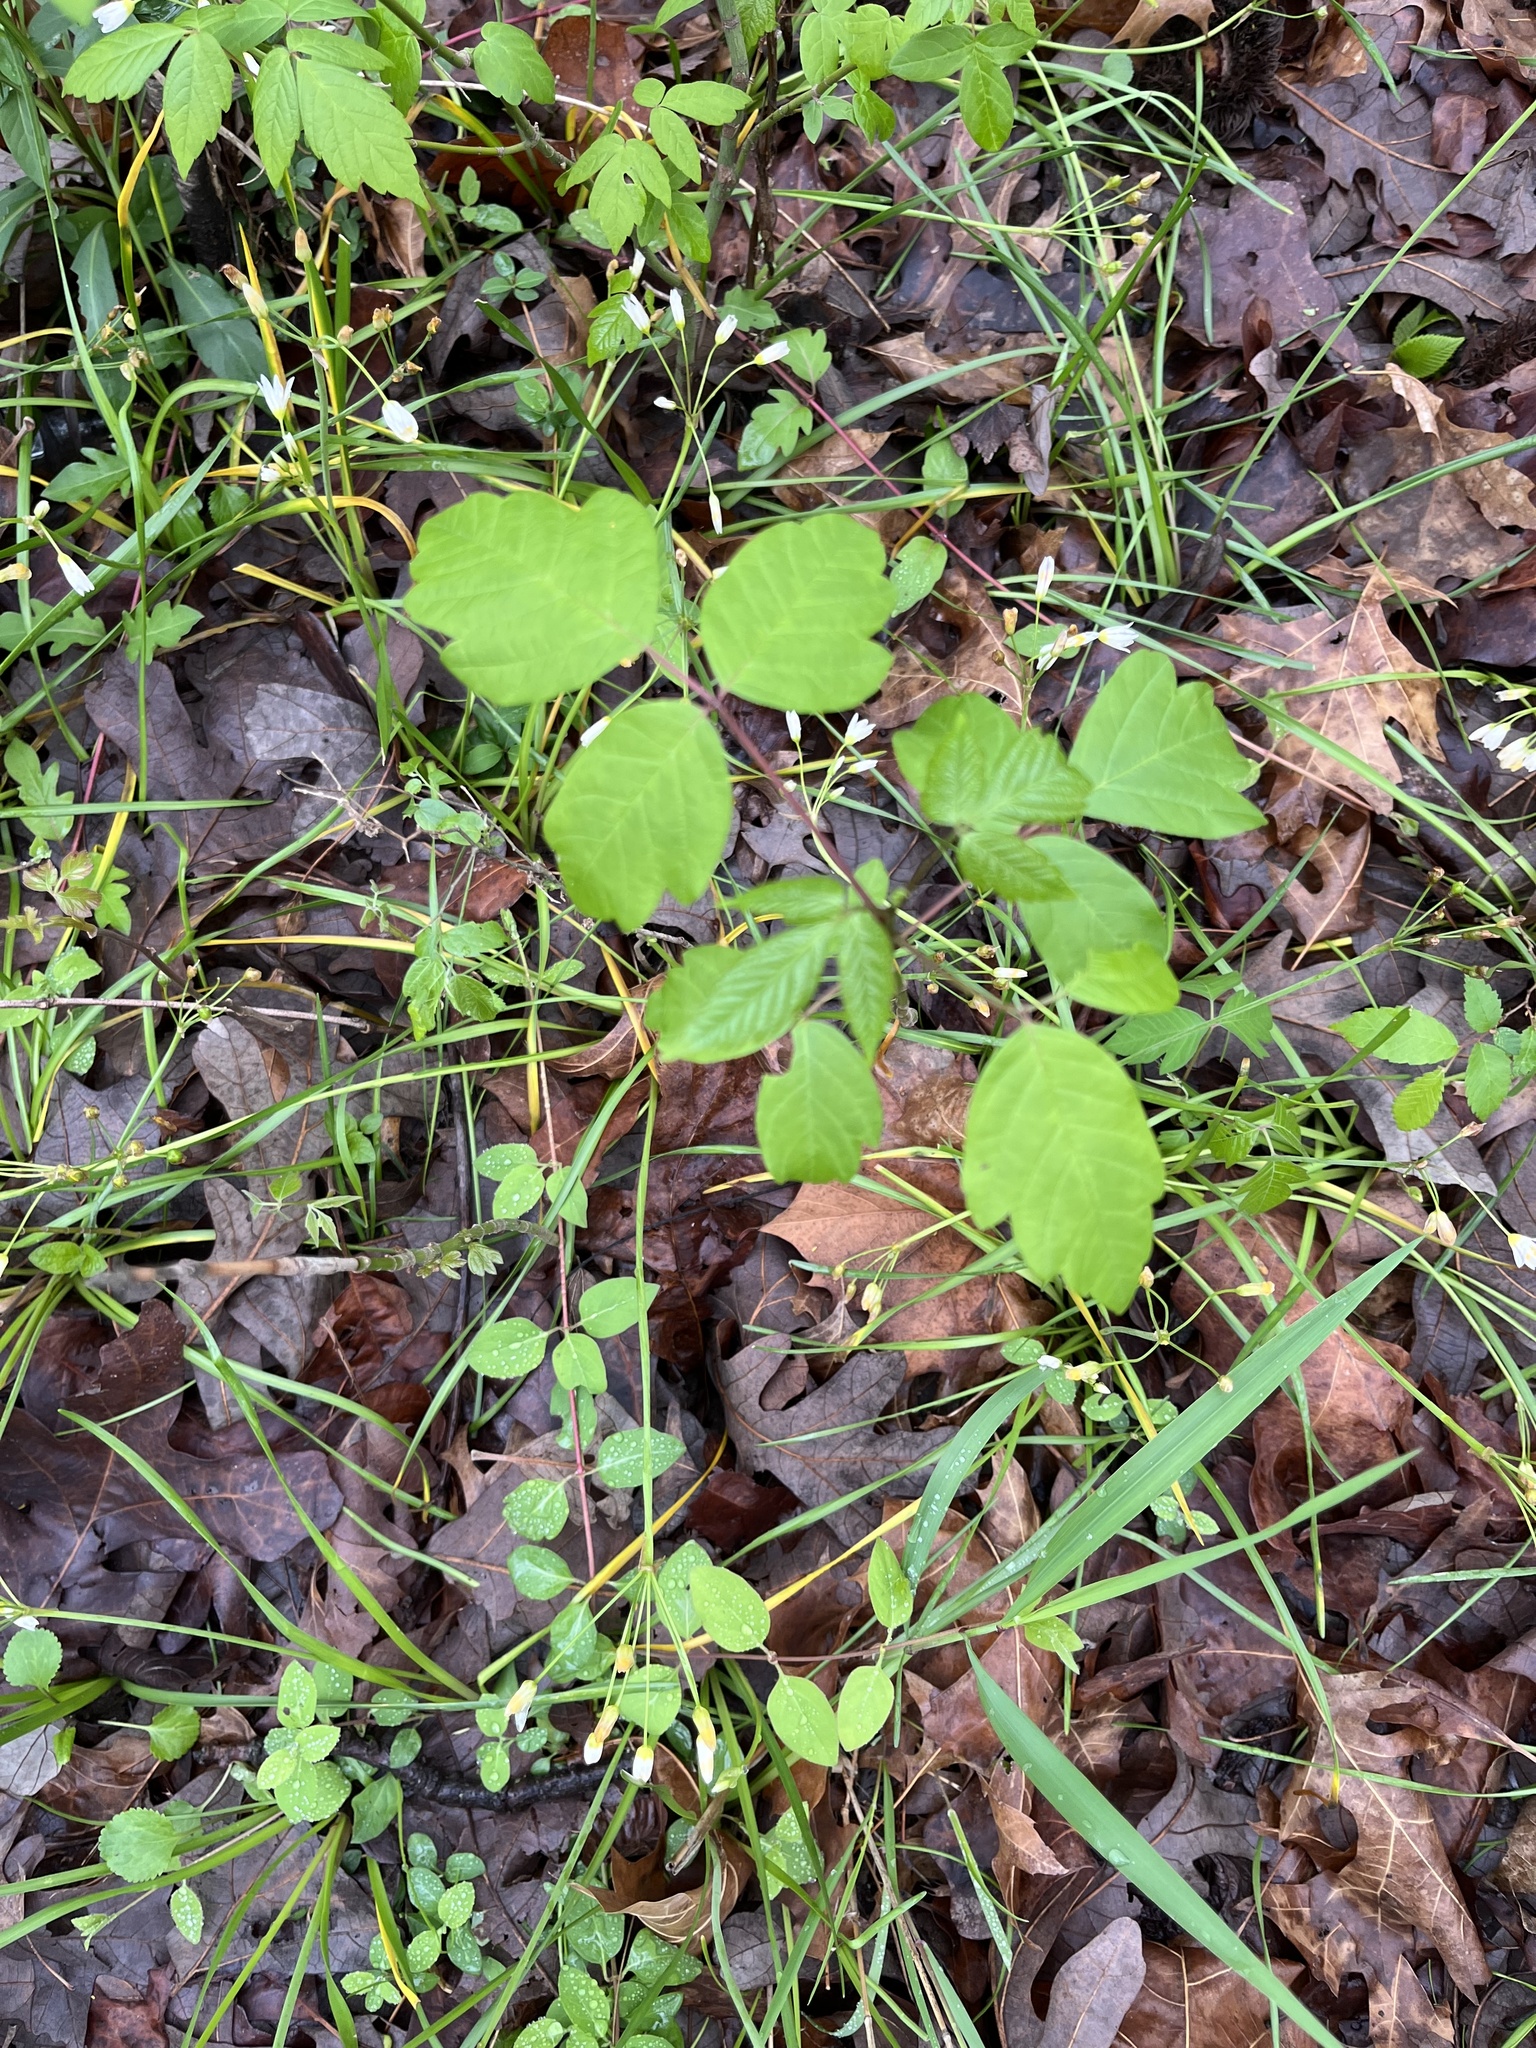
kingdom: Plantae
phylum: Tracheophyta
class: Magnoliopsida
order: Sapindales
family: Anacardiaceae
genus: Toxicodendron
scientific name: Toxicodendron radicans
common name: Poison ivy
